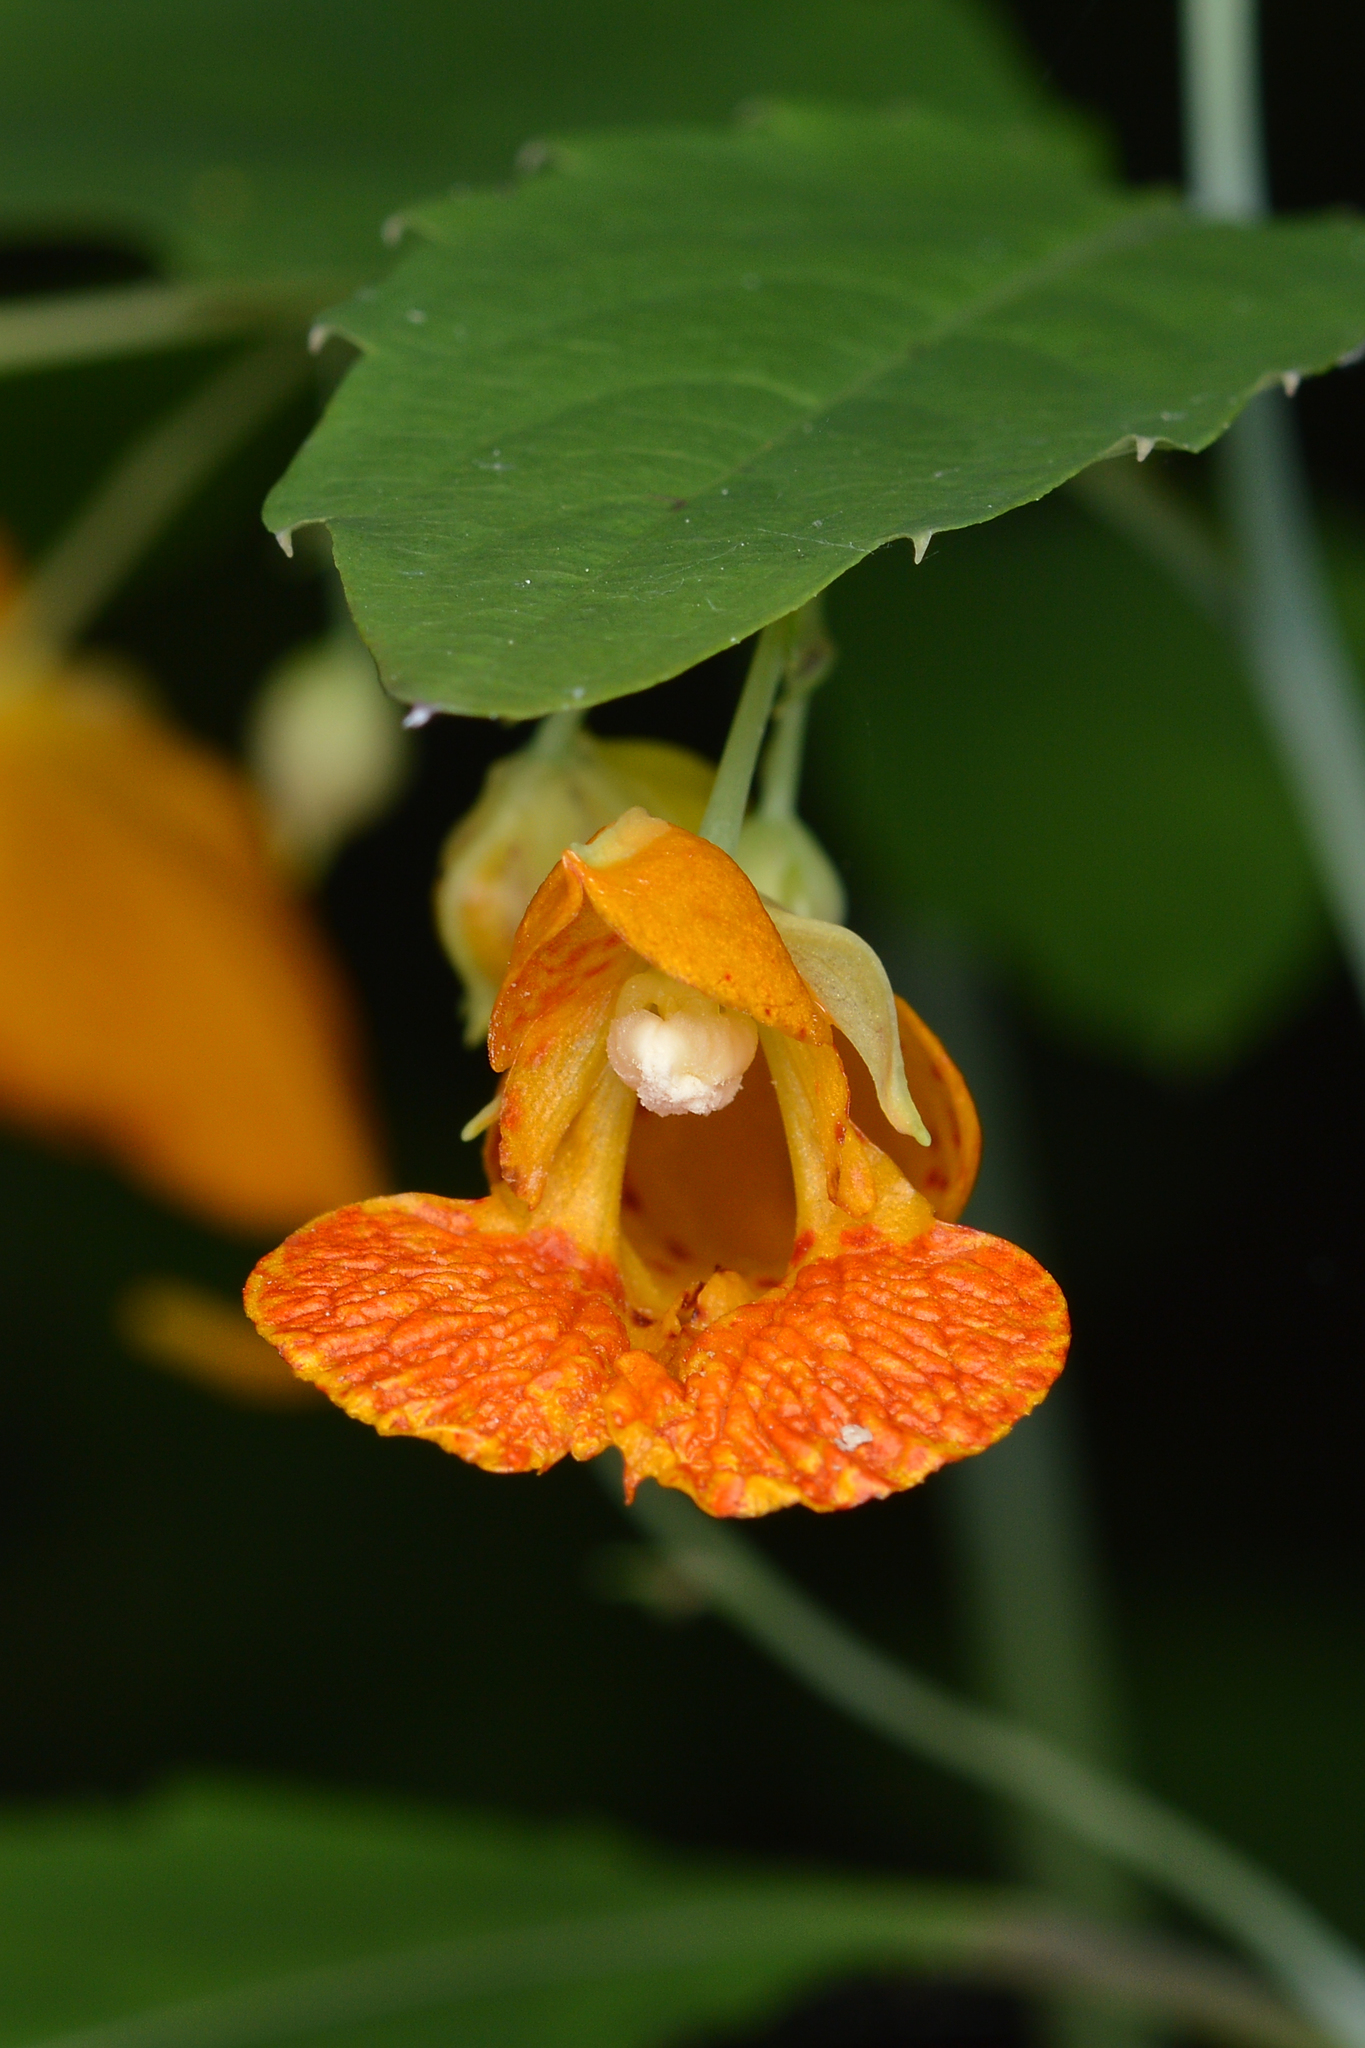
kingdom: Plantae
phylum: Tracheophyta
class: Magnoliopsida
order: Ericales
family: Balsaminaceae
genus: Impatiens
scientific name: Impatiens capensis
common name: Orange balsam
